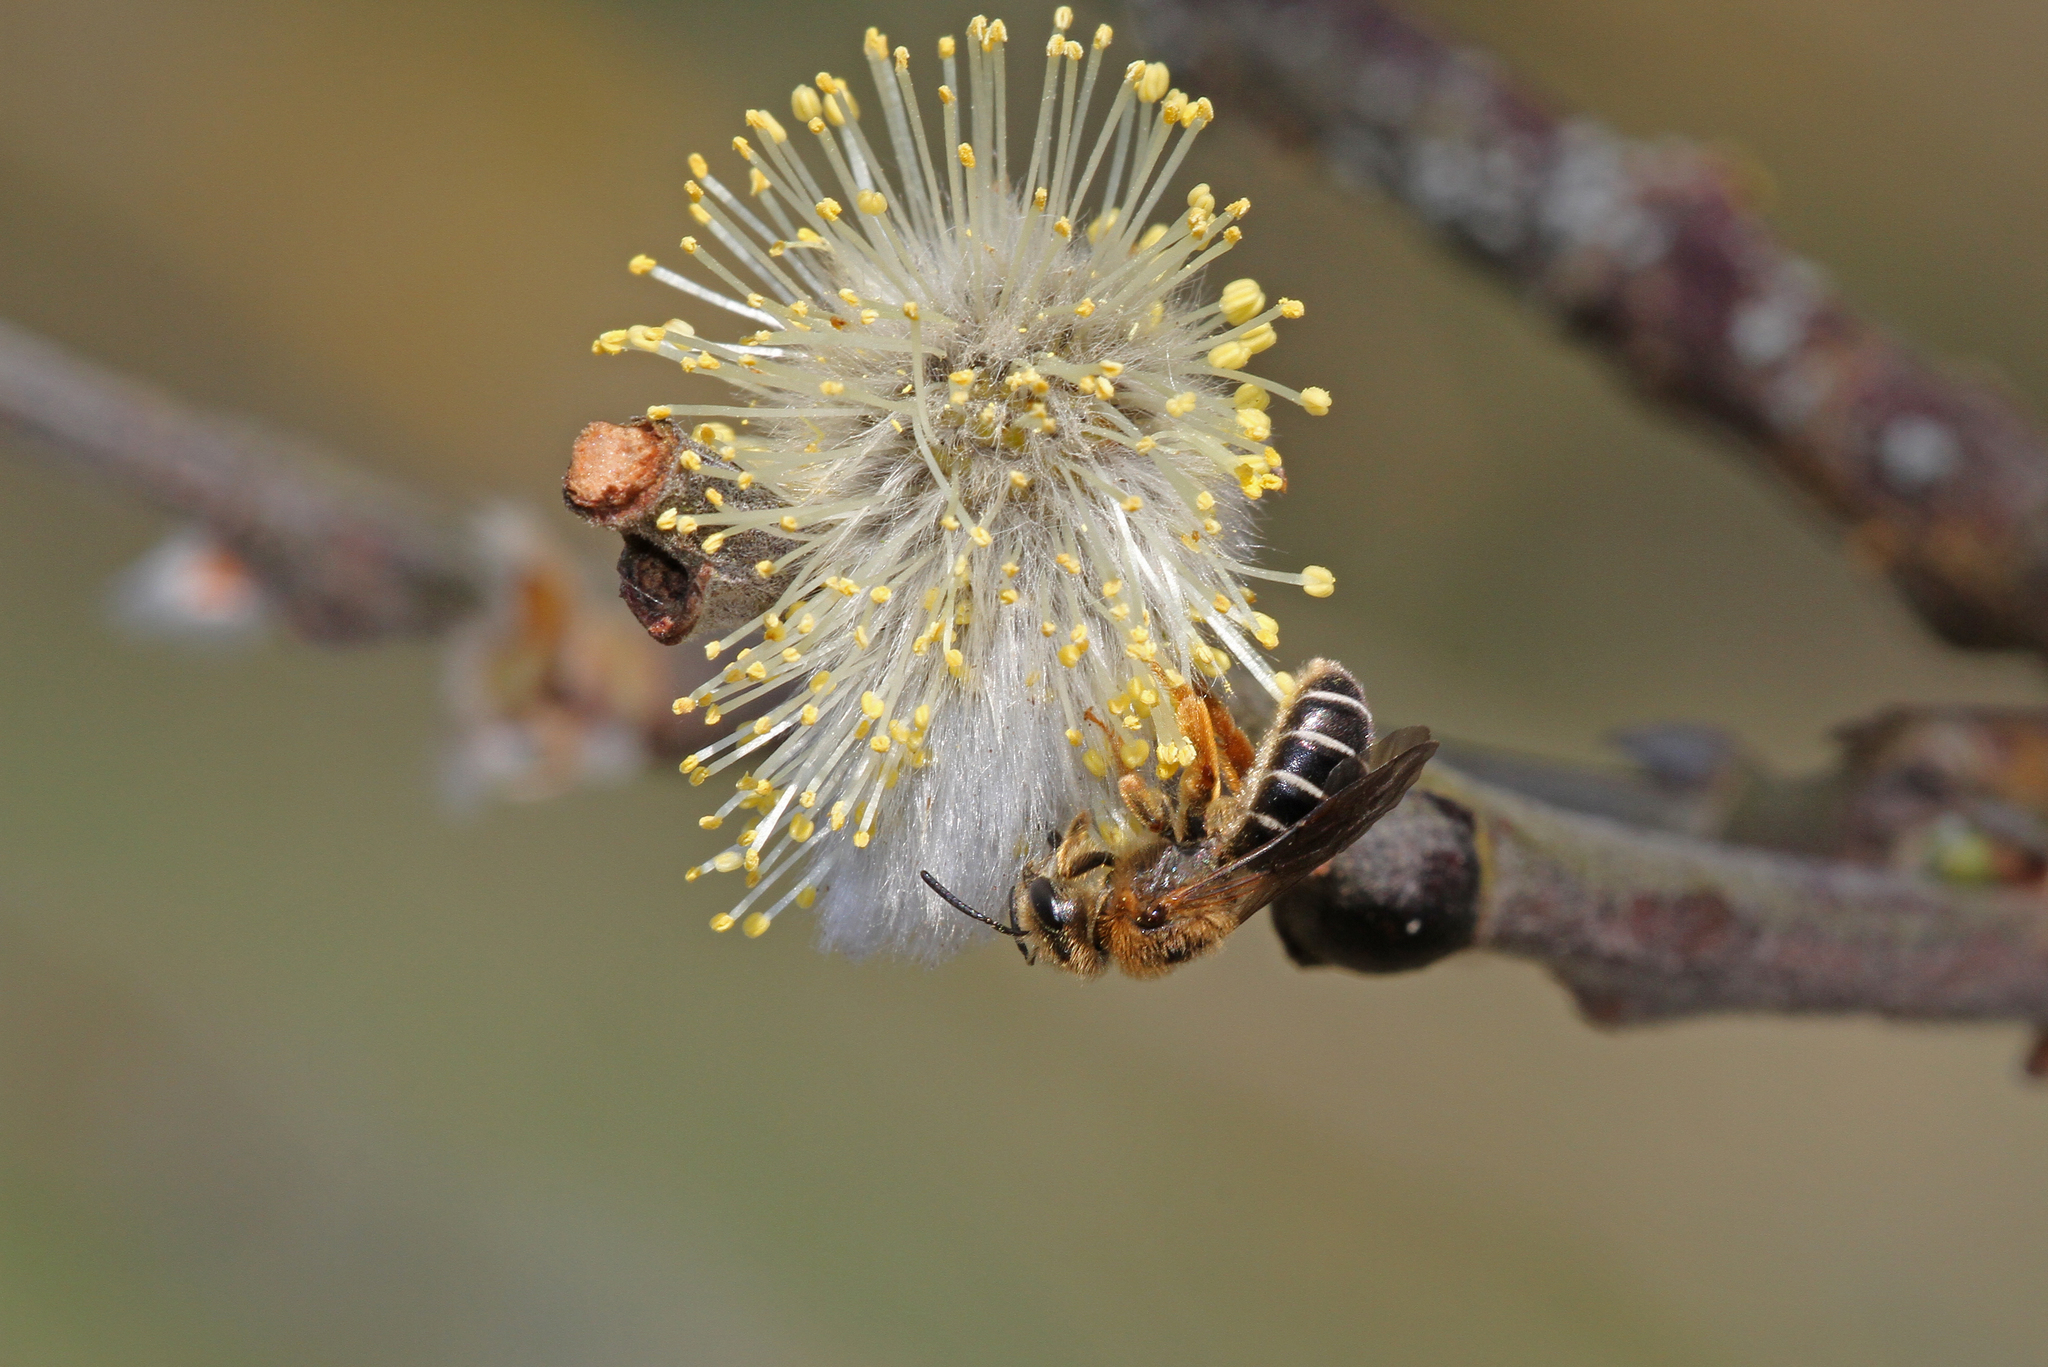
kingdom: Animalia
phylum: Arthropoda
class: Insecta
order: Hymenoptera
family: Halictidae
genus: Halictus
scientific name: Halictus rubicundus
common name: Orange-legged furrow bee
